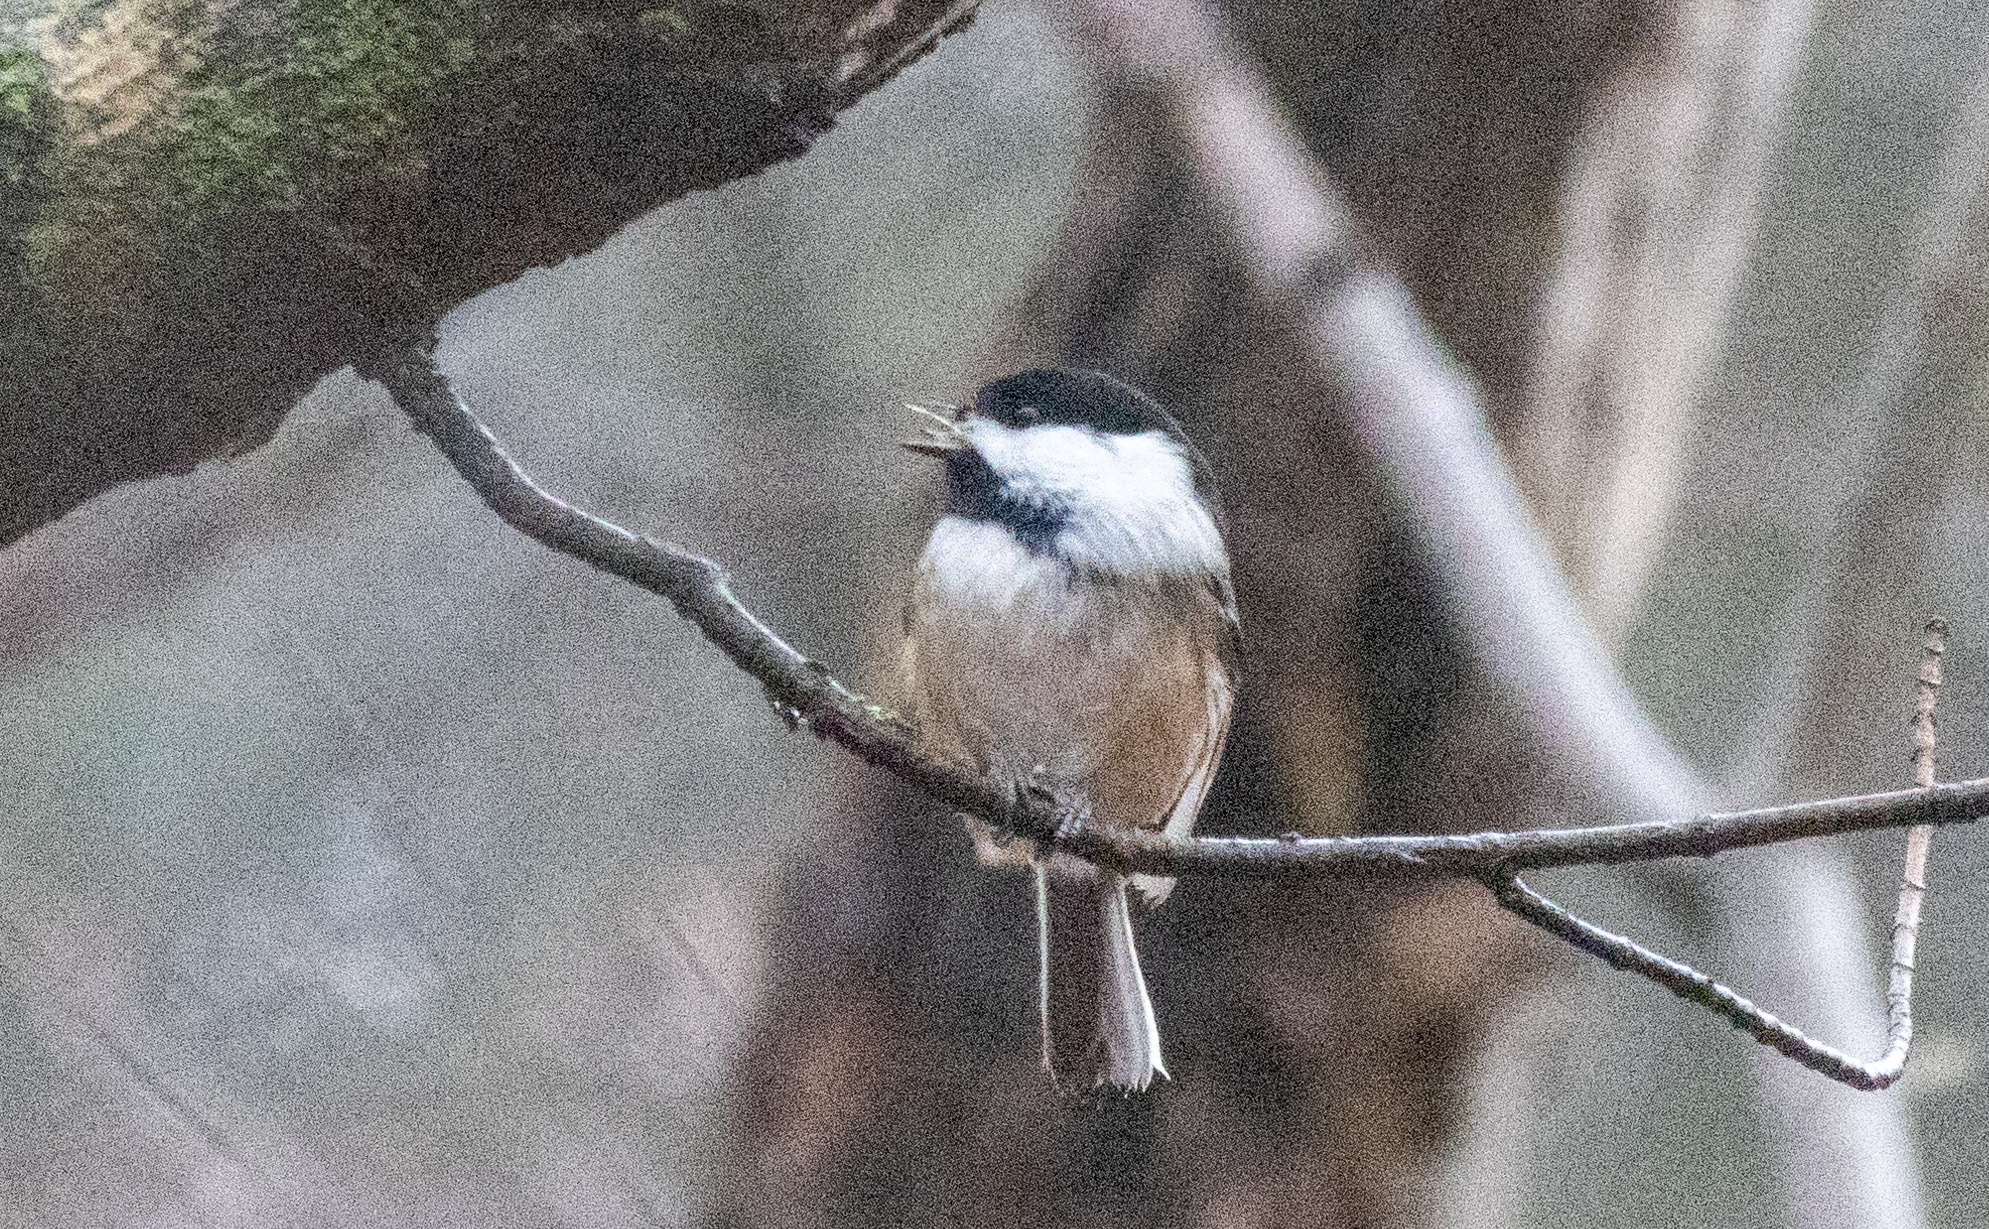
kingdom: Animalia
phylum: Chordata
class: Aves
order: Passeriformes
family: Paridae
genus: Poecile
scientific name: Poecile atricapillus
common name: Black-capped chickadee
